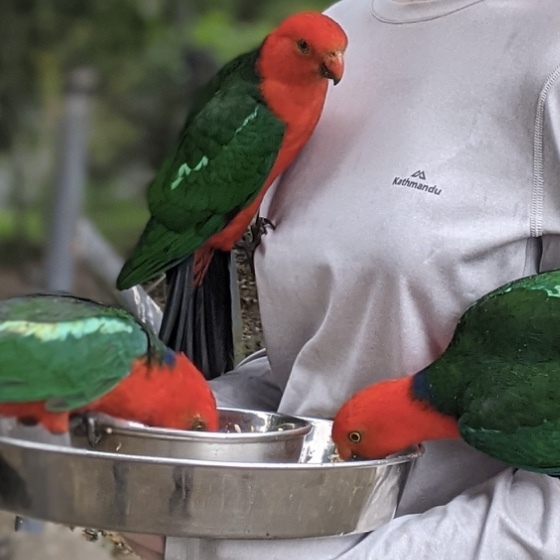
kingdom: Animalia
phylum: Chordata
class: Aves
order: Psittaciformes
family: Psittacidae
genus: Alisterus
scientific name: Alisterus scapularis
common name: Australian king parrot
